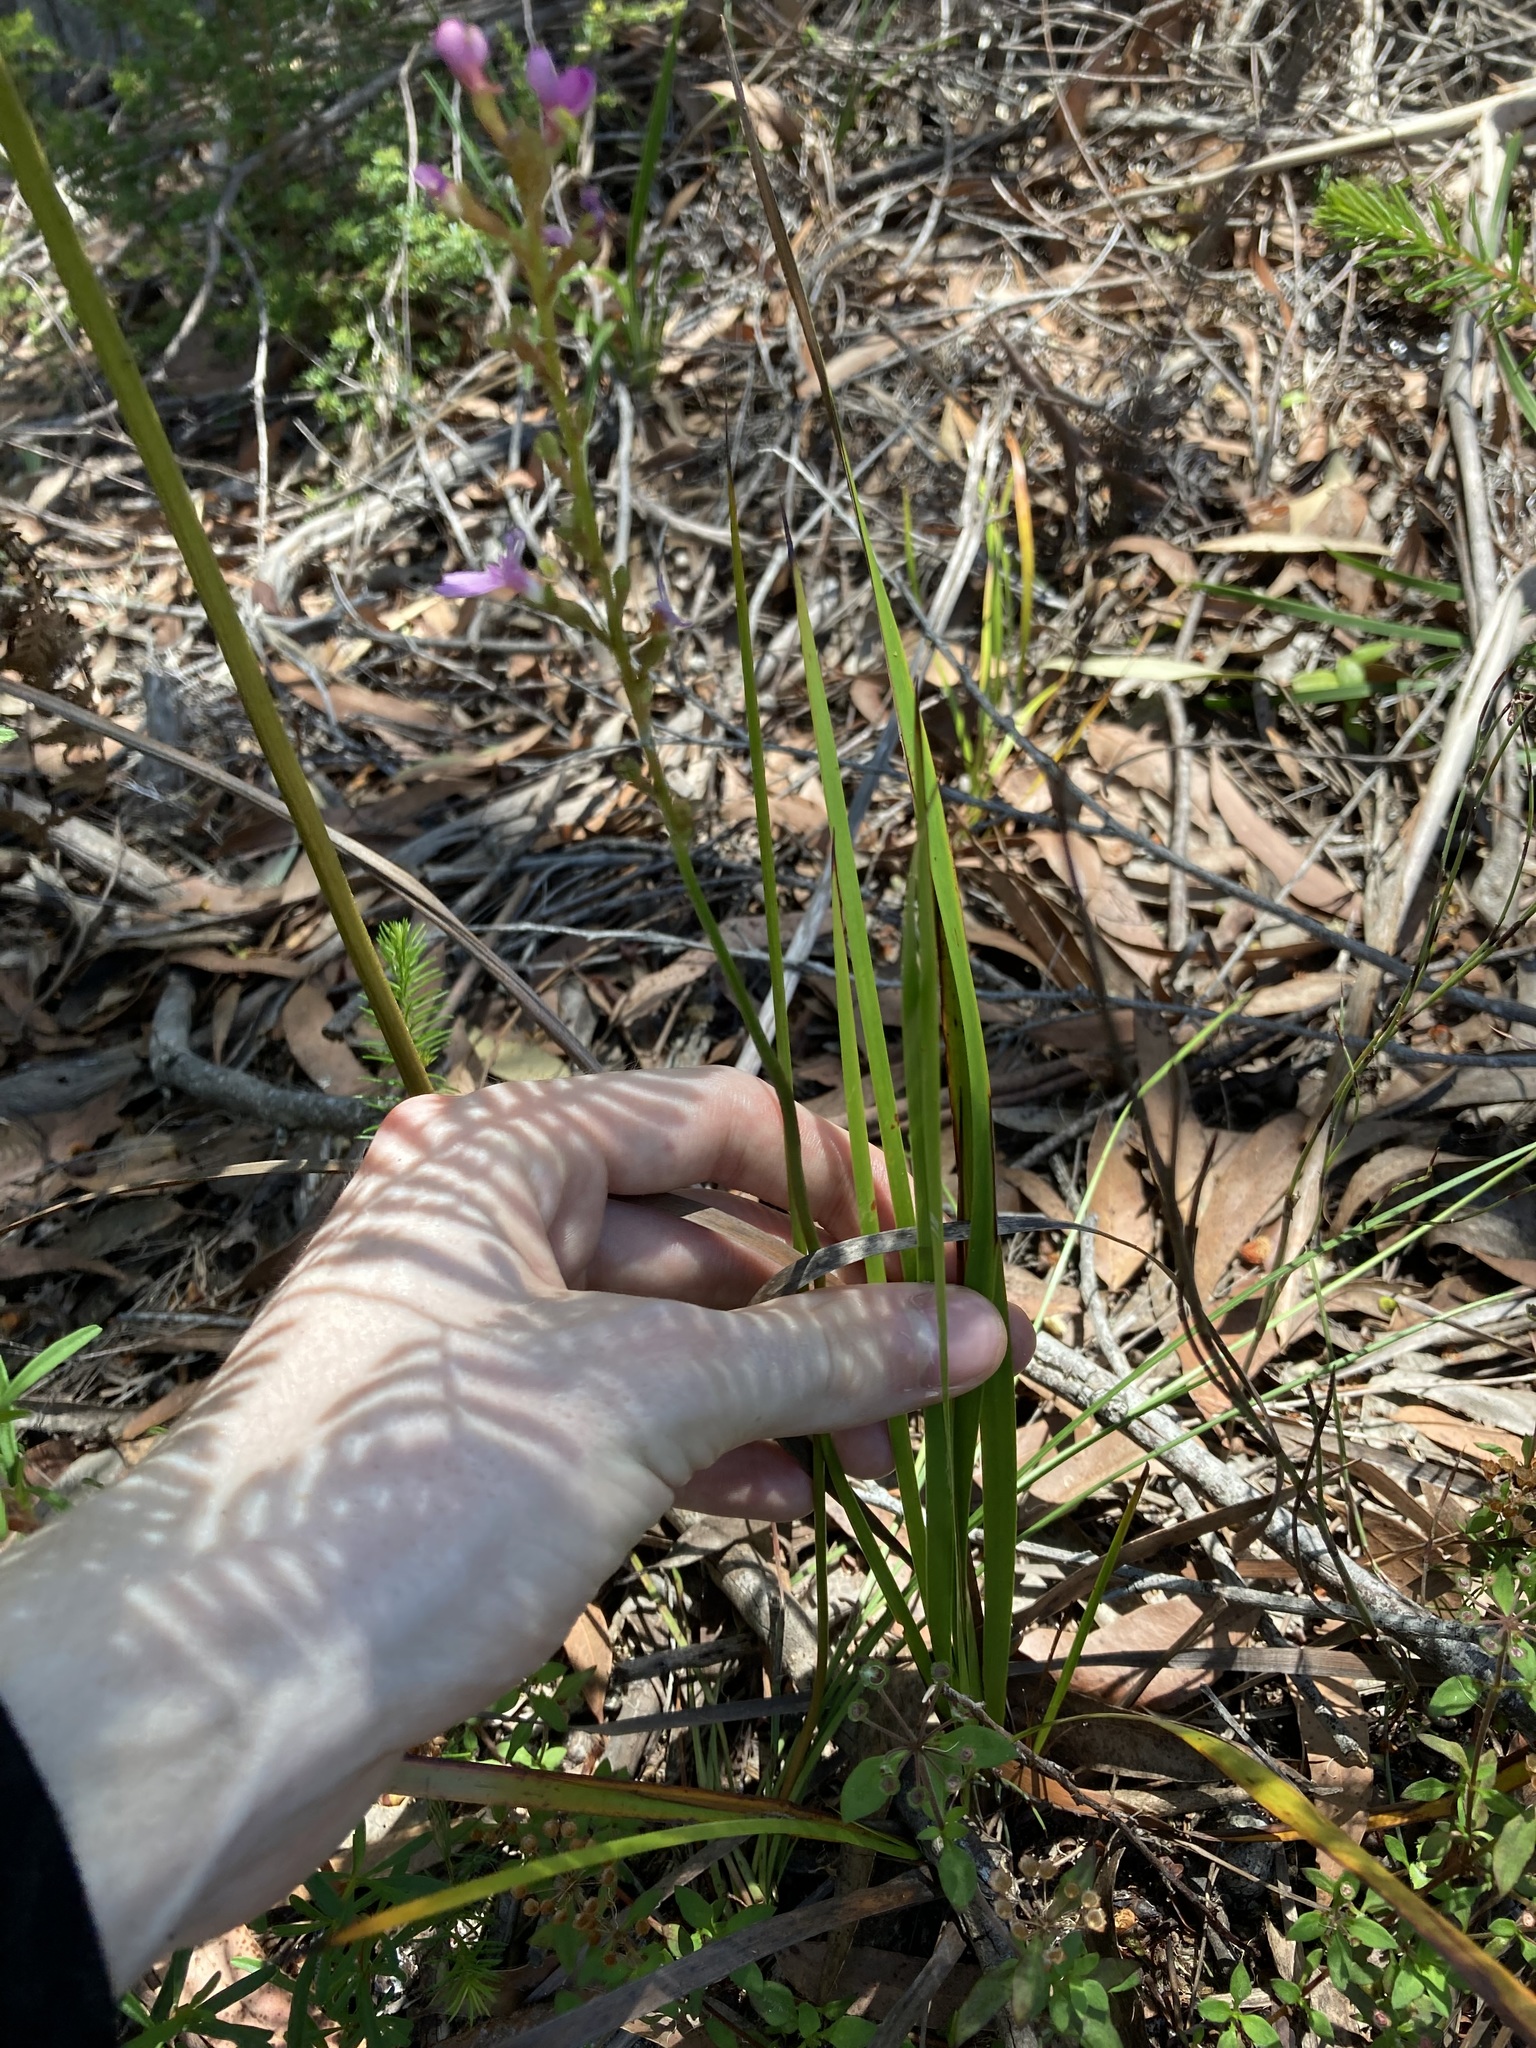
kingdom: Plantae
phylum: Tracheophyta
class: Magnoliopsida
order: Asterales
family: Stylidiaceae
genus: Stylidium
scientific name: Stylidium graminifolium
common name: Grass triggerplant
